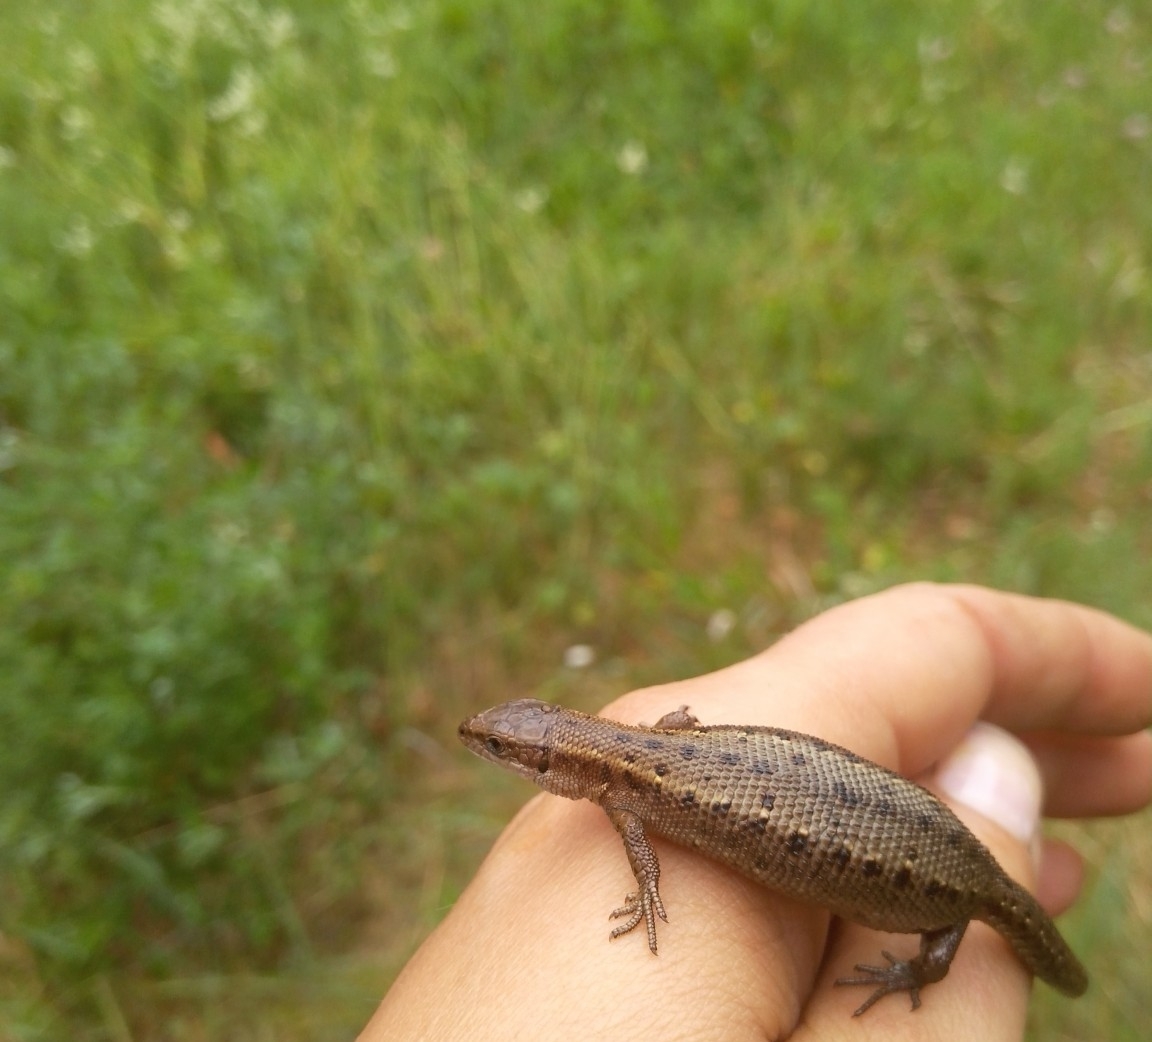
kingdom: Animalia
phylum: Chordata
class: Squamata
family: Lacertidae
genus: Zootoca
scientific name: Zootoca vivipara
